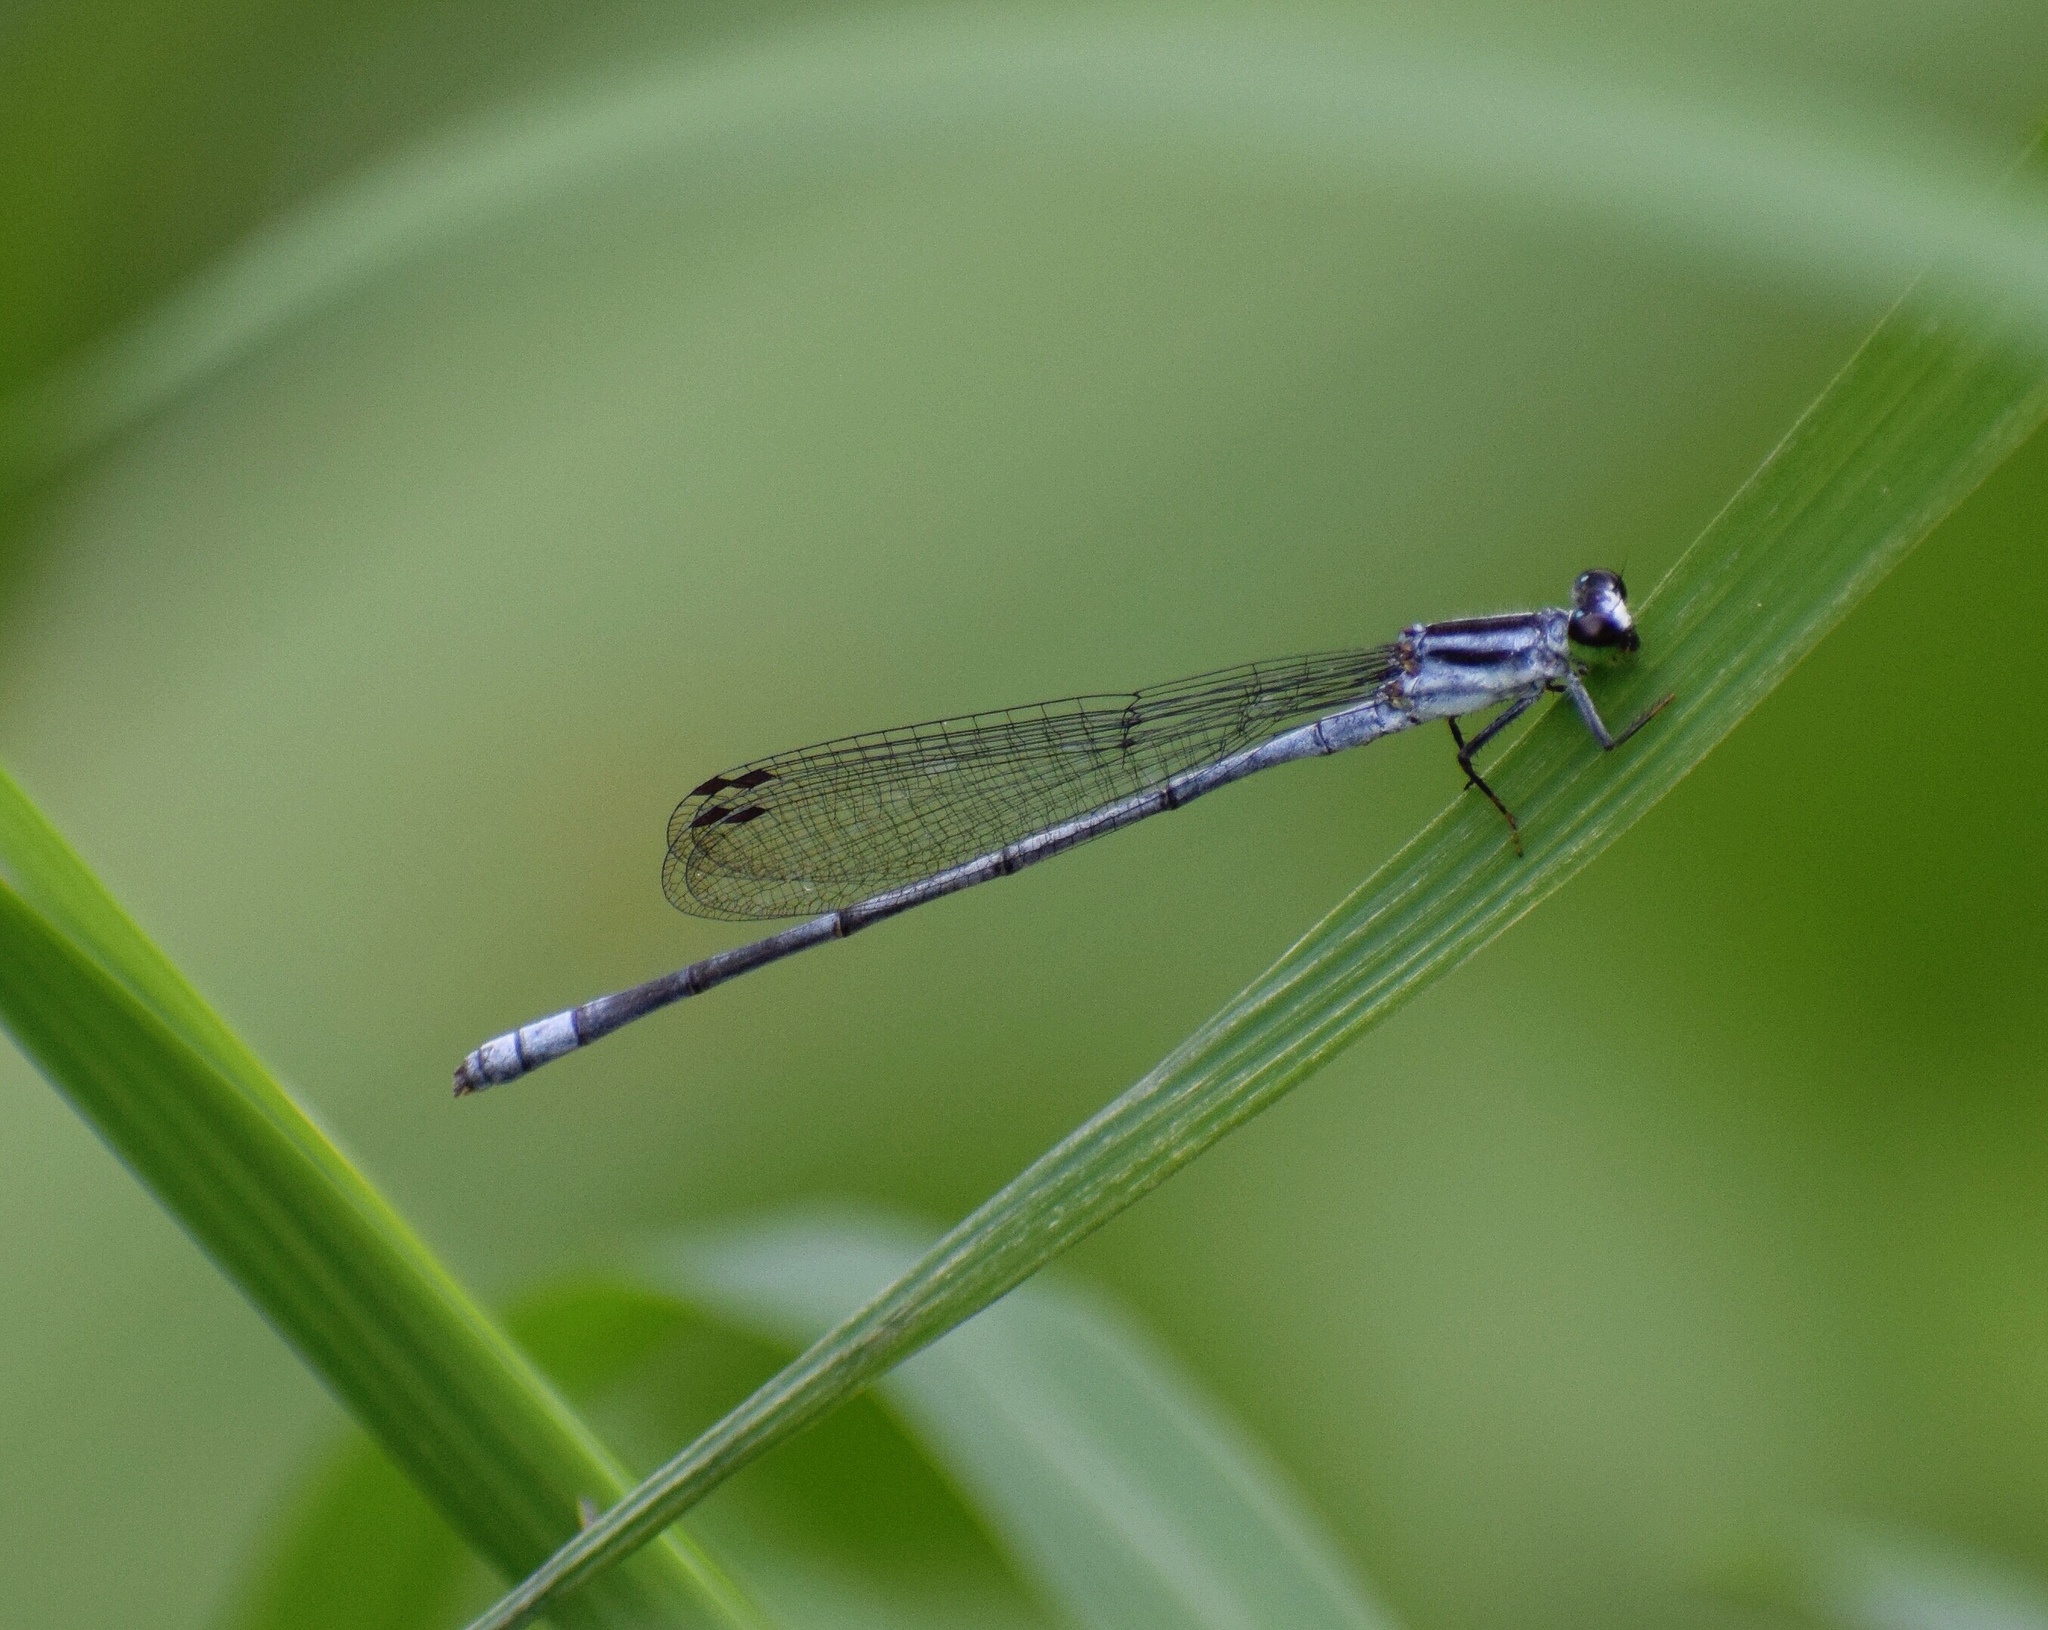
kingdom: Animalia
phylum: Arthropoda
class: Insecta
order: Odonata
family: Coenagrionidae
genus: Pseudagrion
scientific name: Pseudagrion kersteni
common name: Powder-faced sprite
